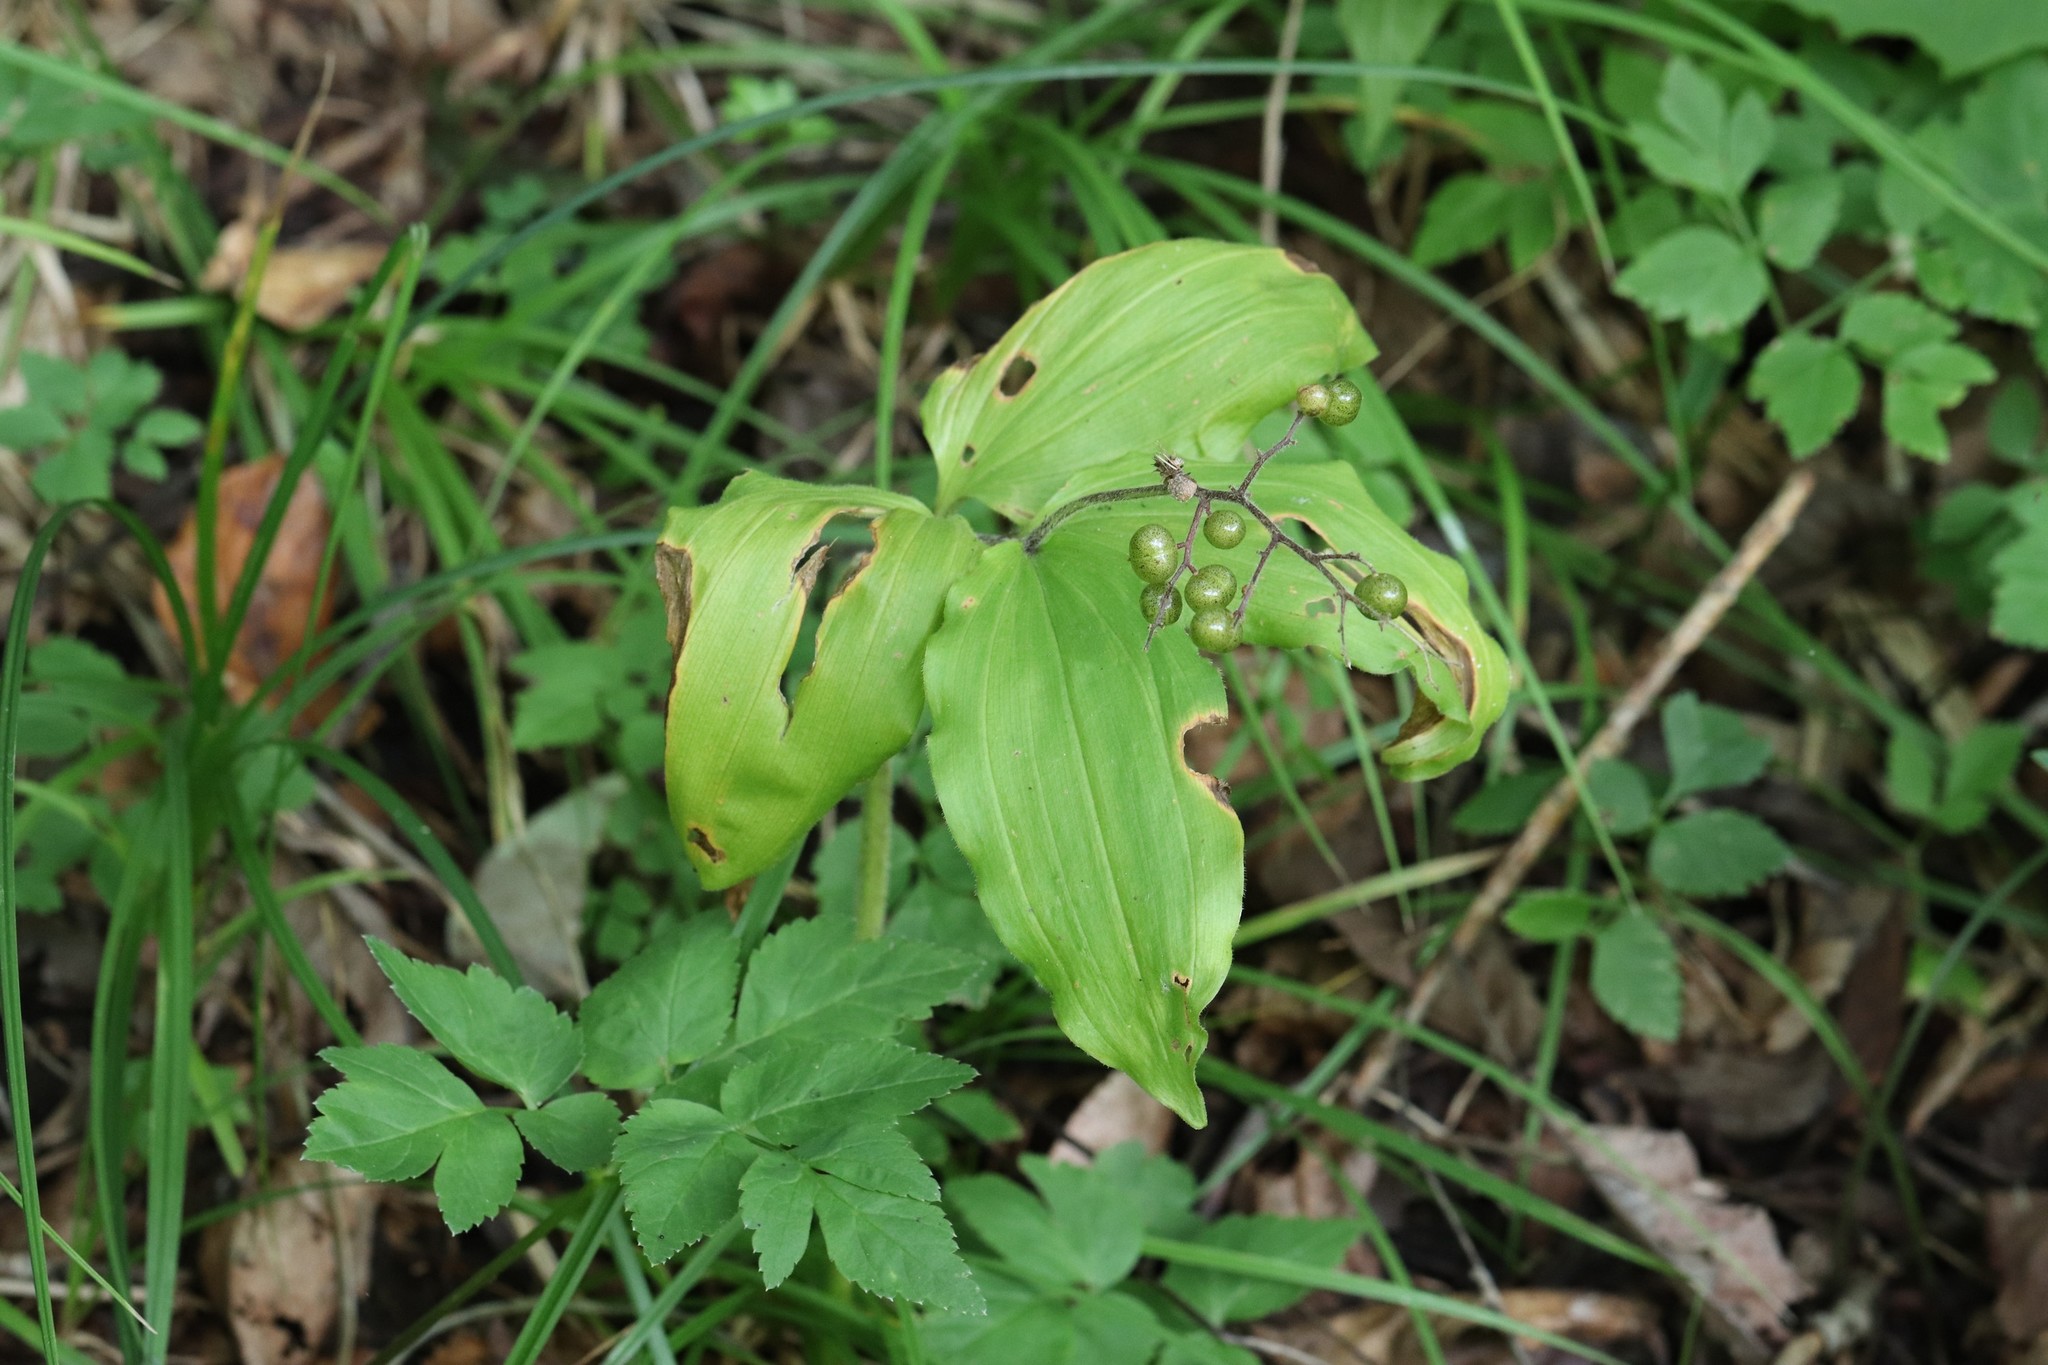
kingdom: Plantae
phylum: Tracheophyta
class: Liliopsida
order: Asparagales
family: Asparagaceae
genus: Maianthemum
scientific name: Maianthemum japonicum
